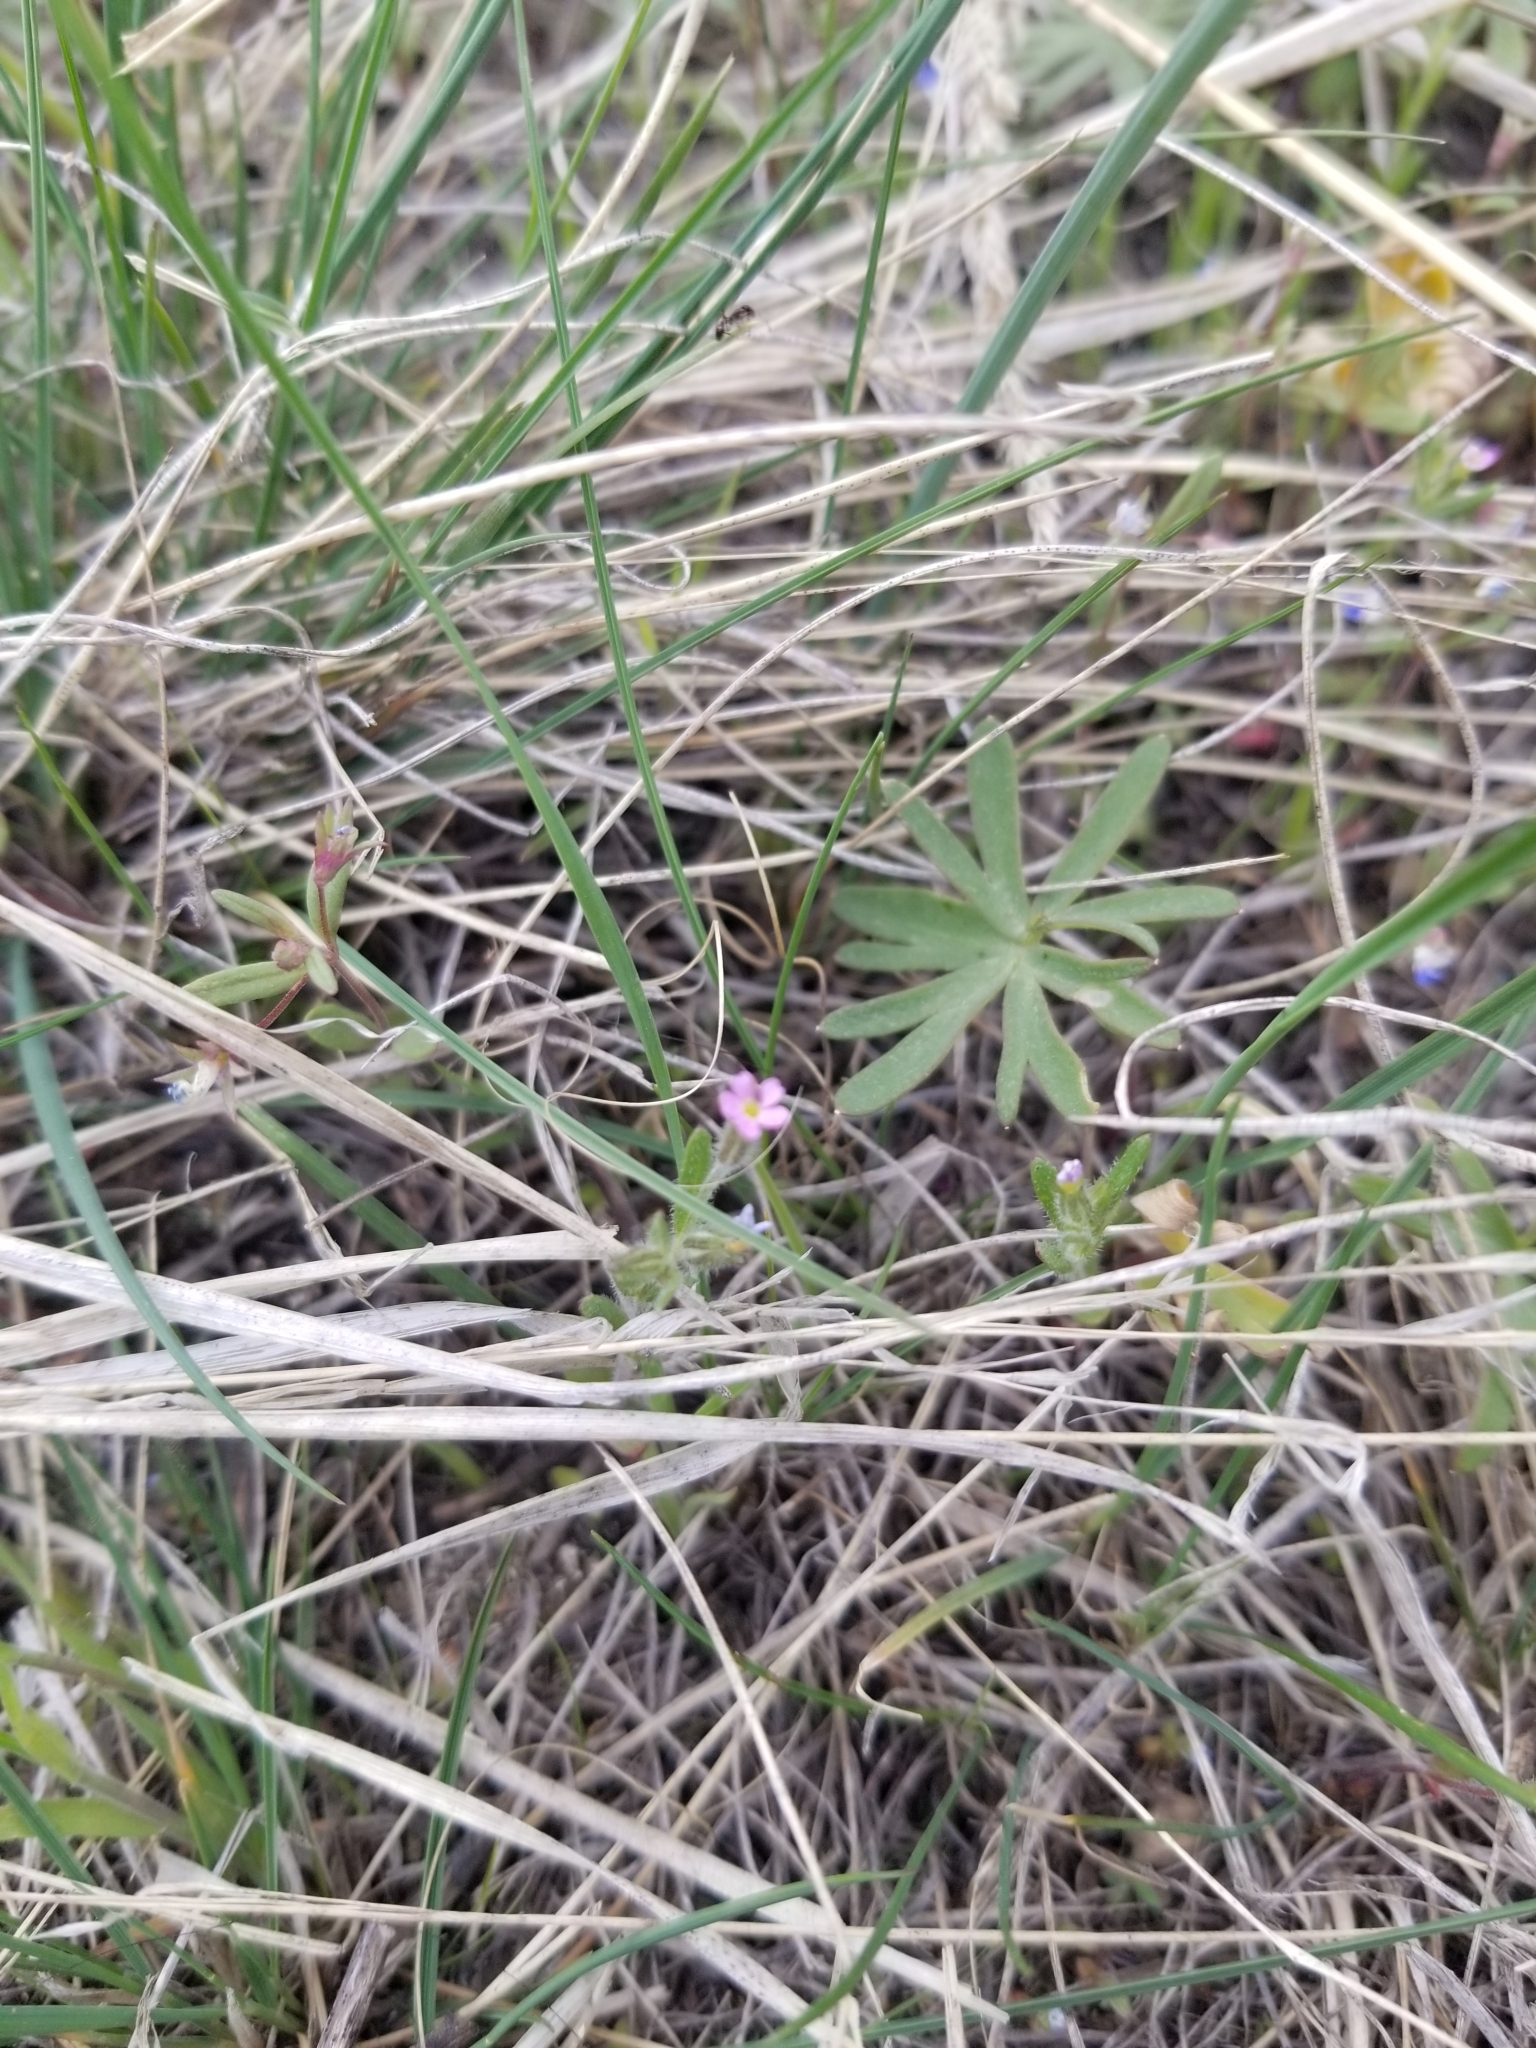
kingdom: Plantae
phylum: Tracheophyta
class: Magnoliopsida
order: Ericales
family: Polemoniaceae
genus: Phlox
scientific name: Phlox gracilis
